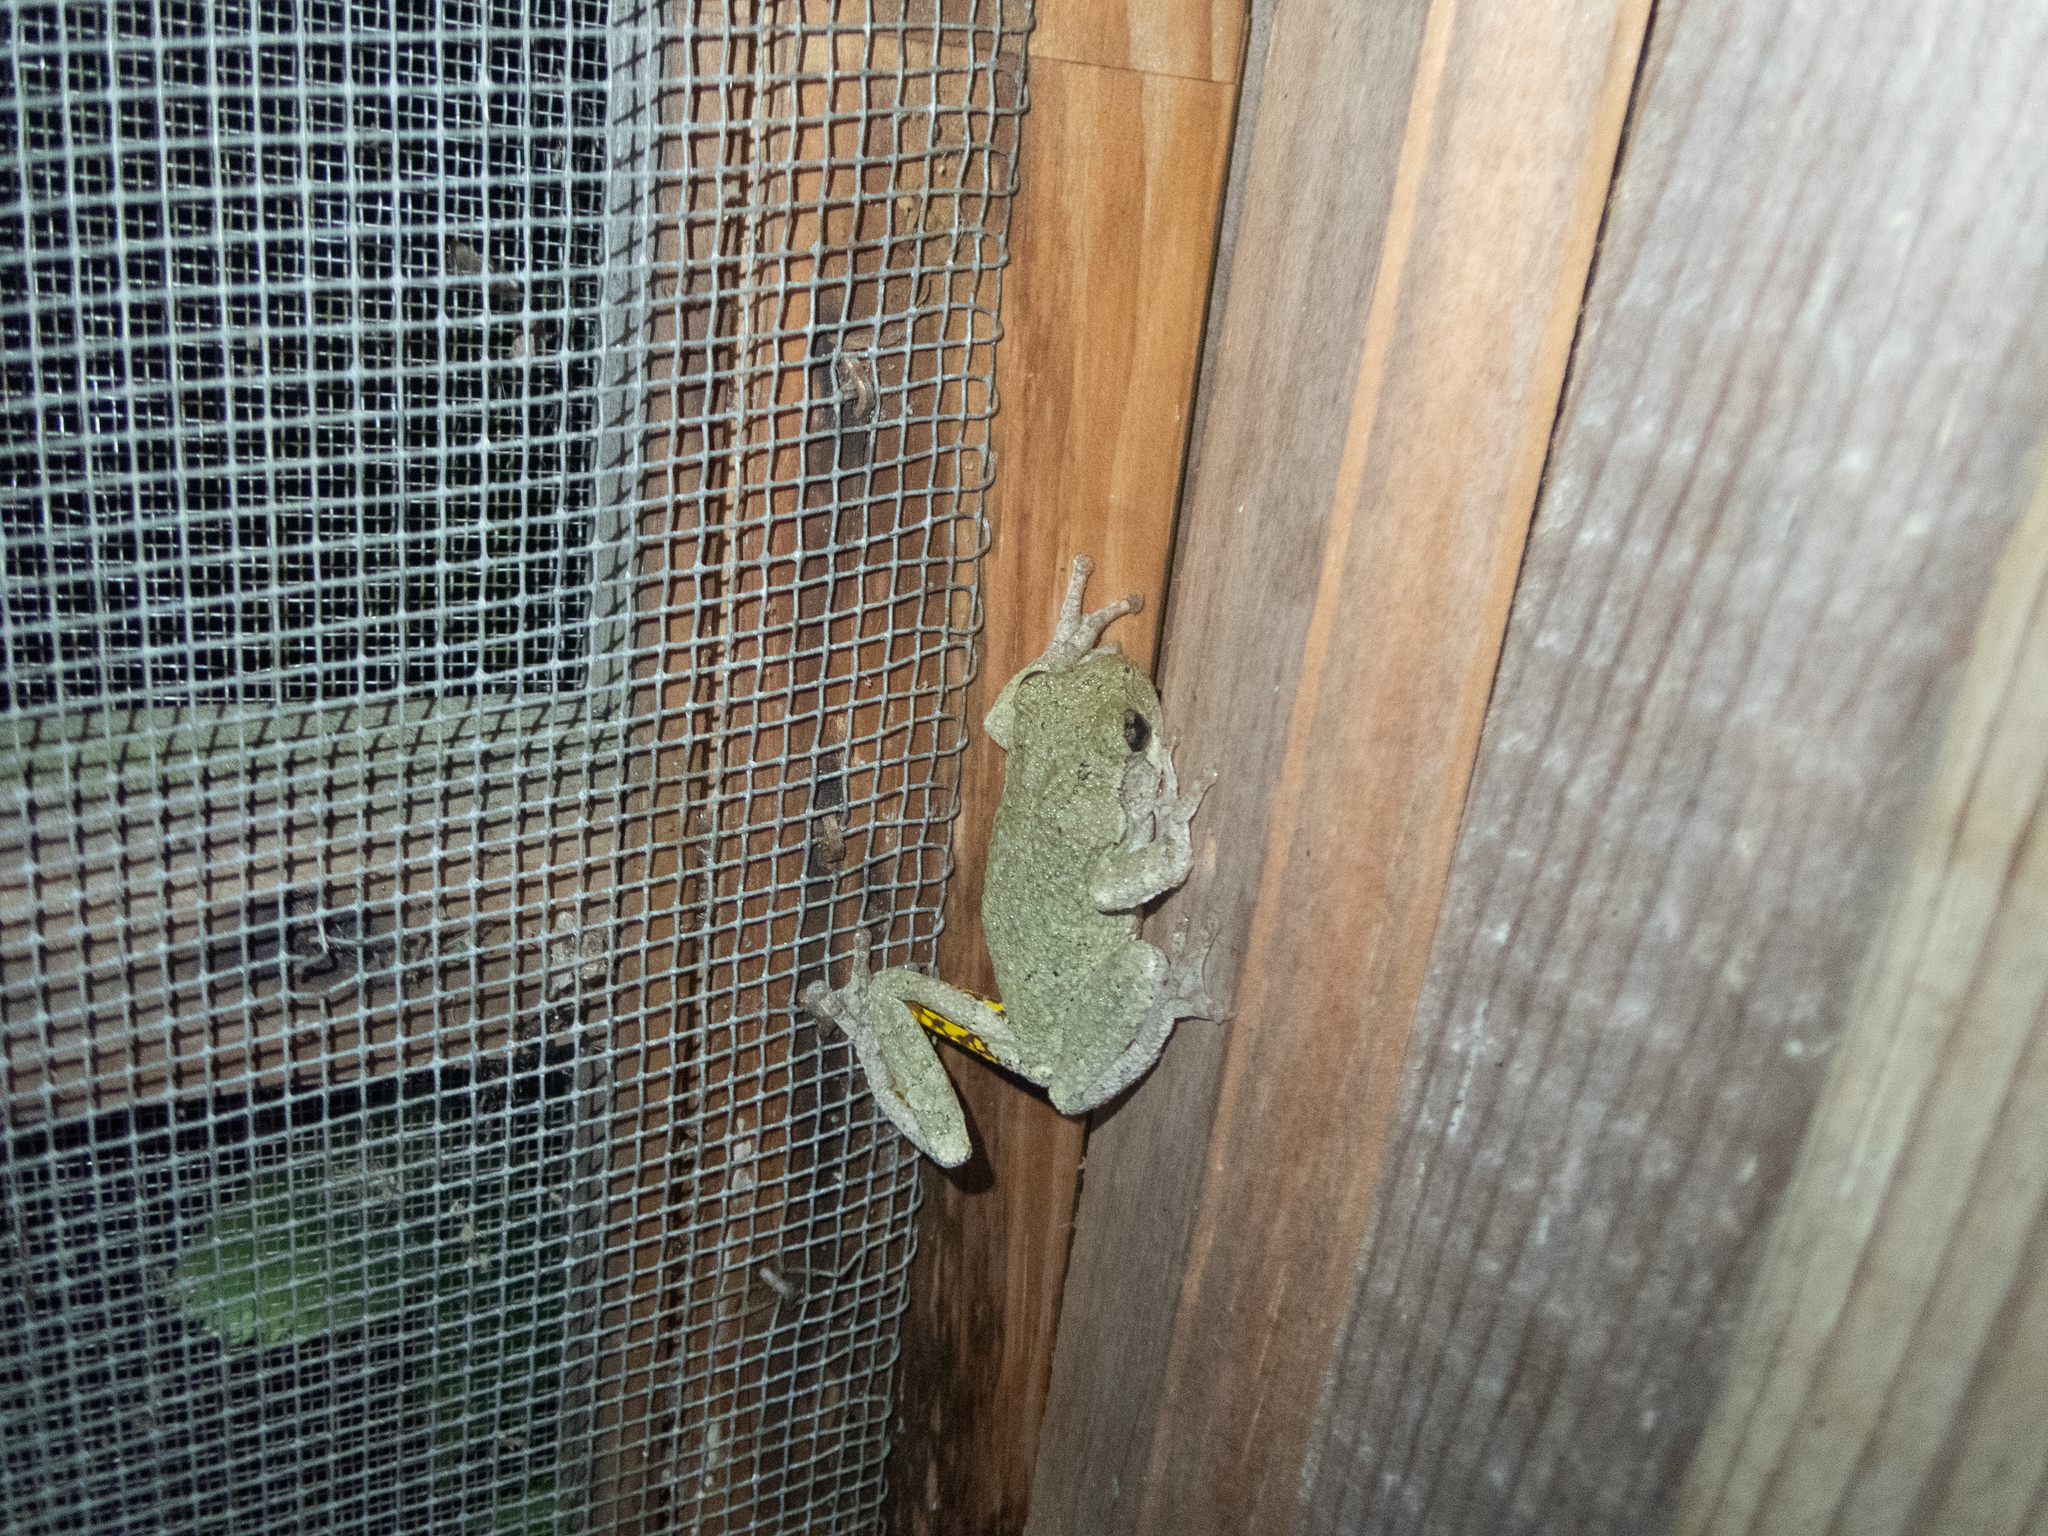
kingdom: Animalia
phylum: Chordata
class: Amphibia
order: Anura
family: Hylidae
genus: Hyla
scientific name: Hyla
